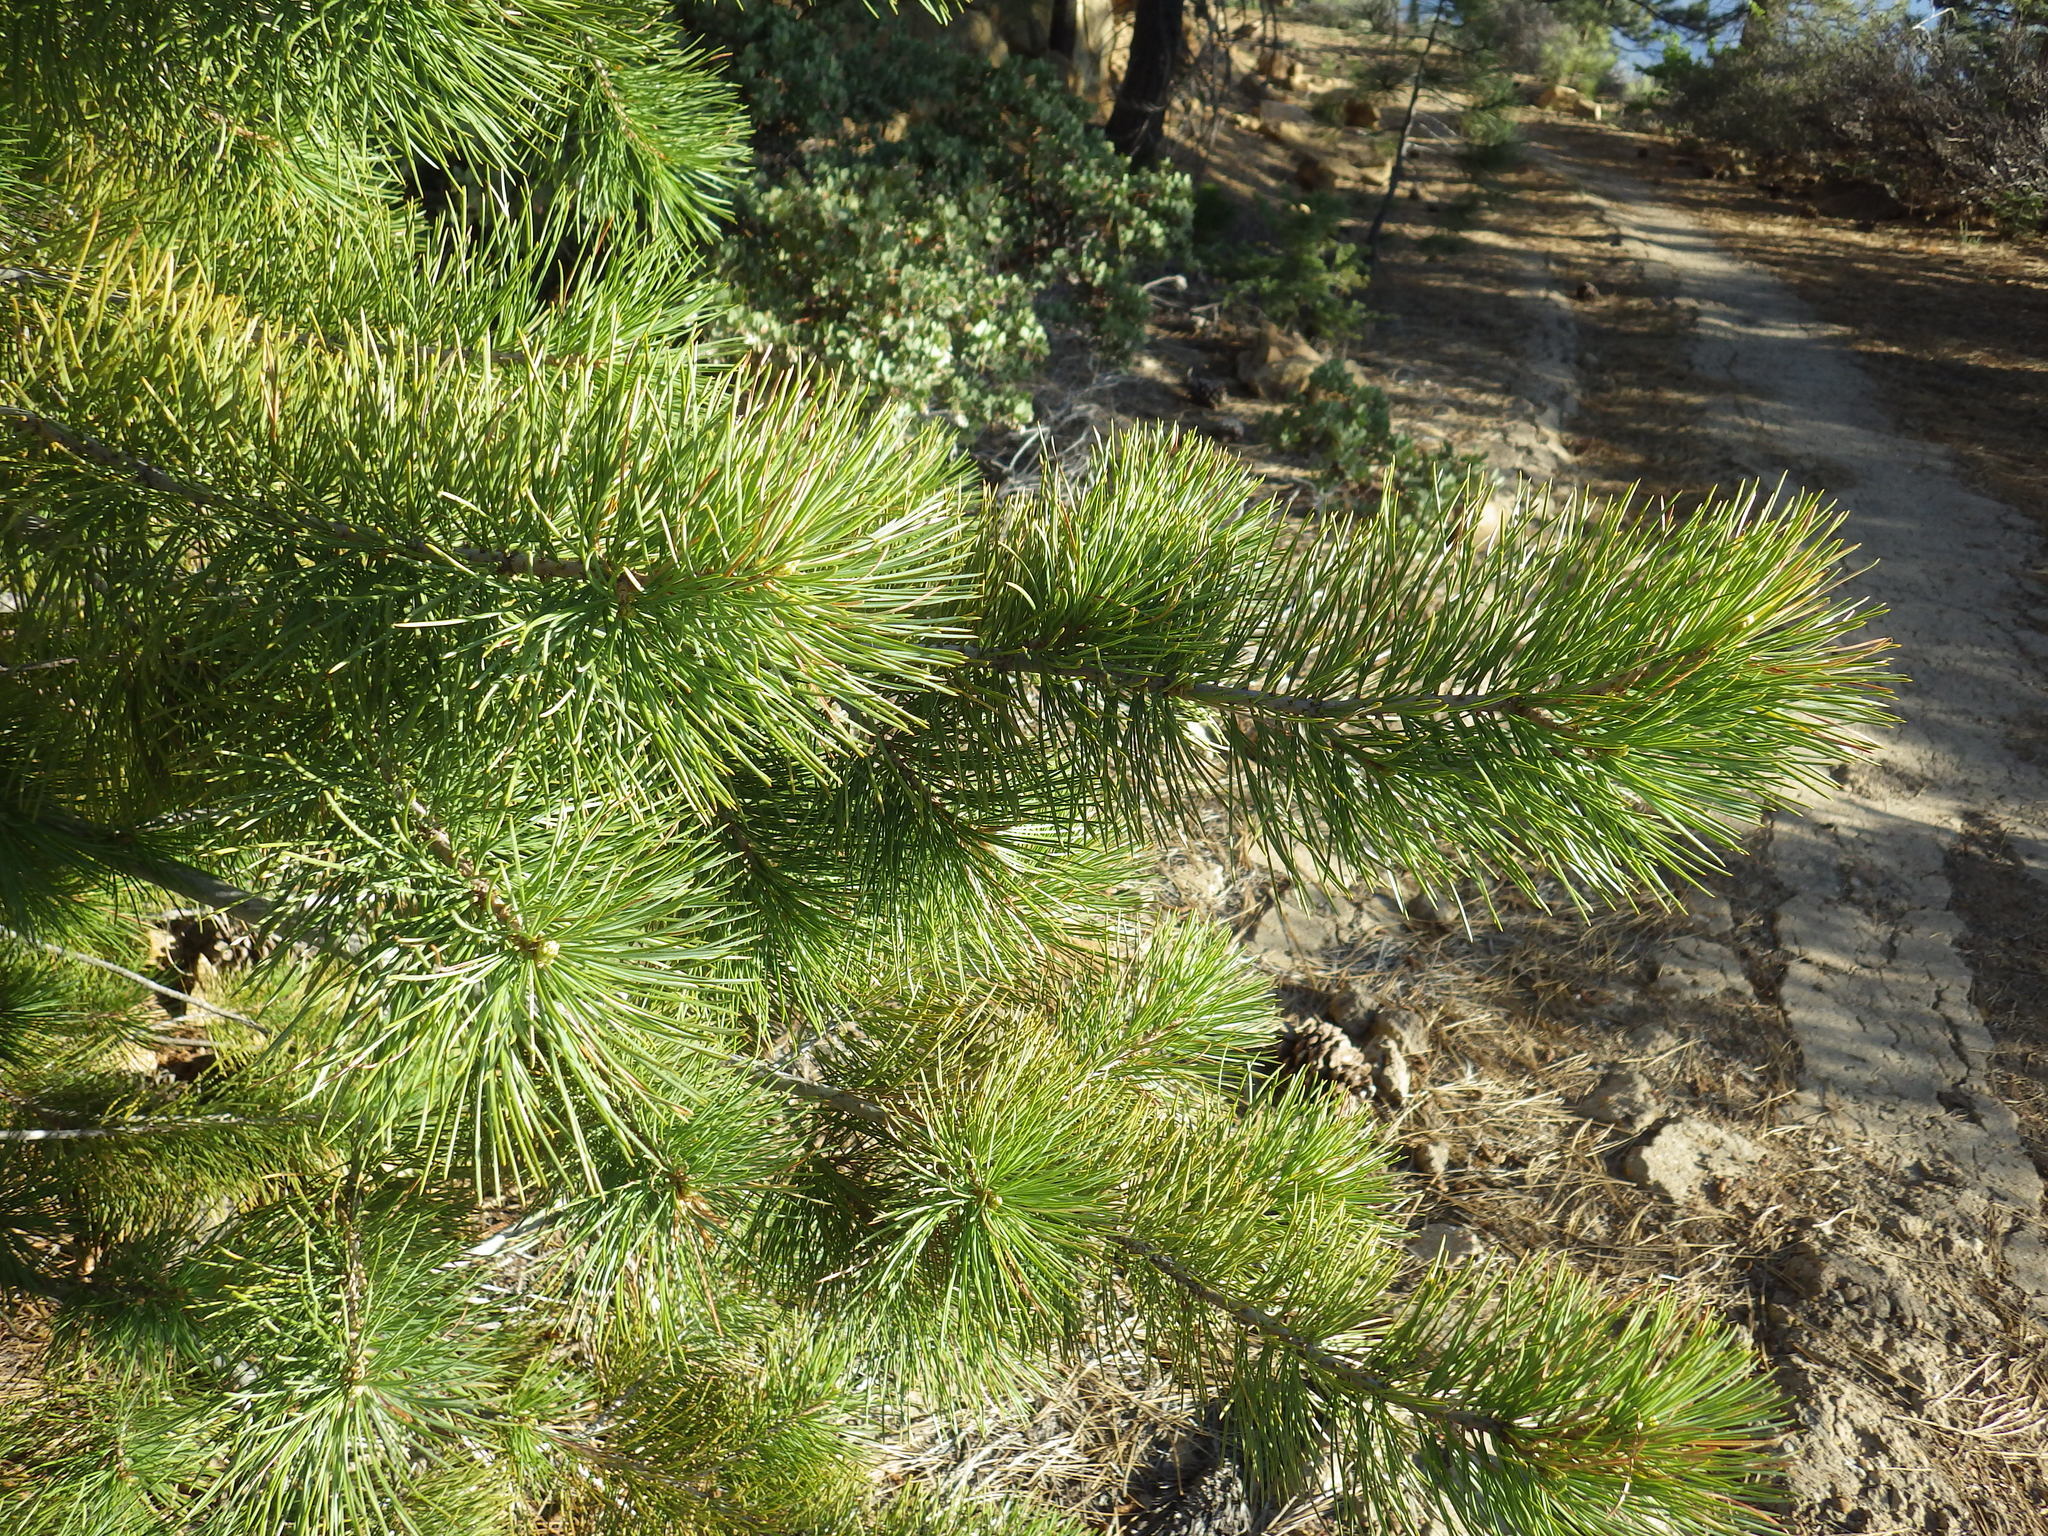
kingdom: Plantae
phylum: Tracheophyta
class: Pinopsida
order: Pinales
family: Pinaceae
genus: Pinus
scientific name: Pinus lambertiana
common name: Sugar pine
